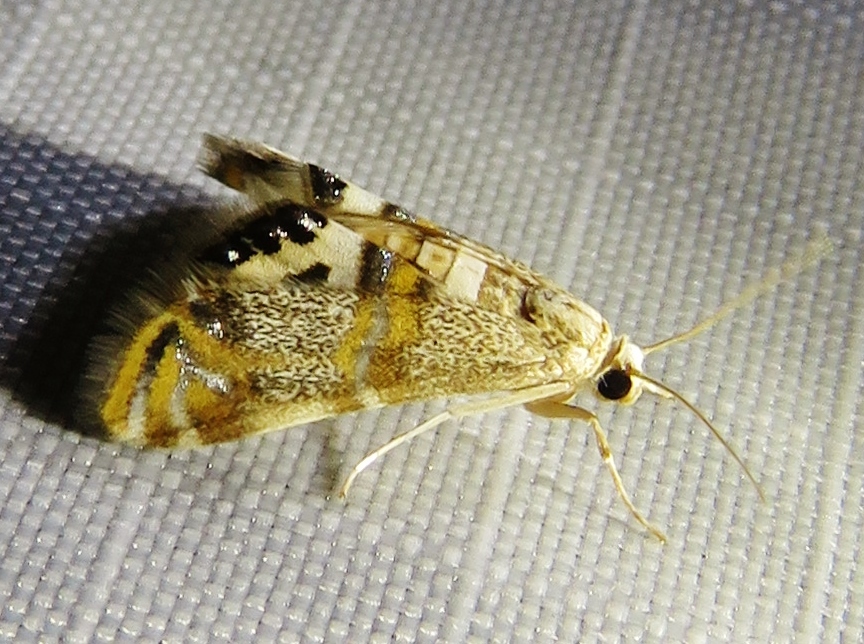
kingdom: Animalia
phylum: Arthropoda
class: Insecta
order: Lepidoptera
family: Crambidae
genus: Petrophila
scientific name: Petrophila bifascialis
